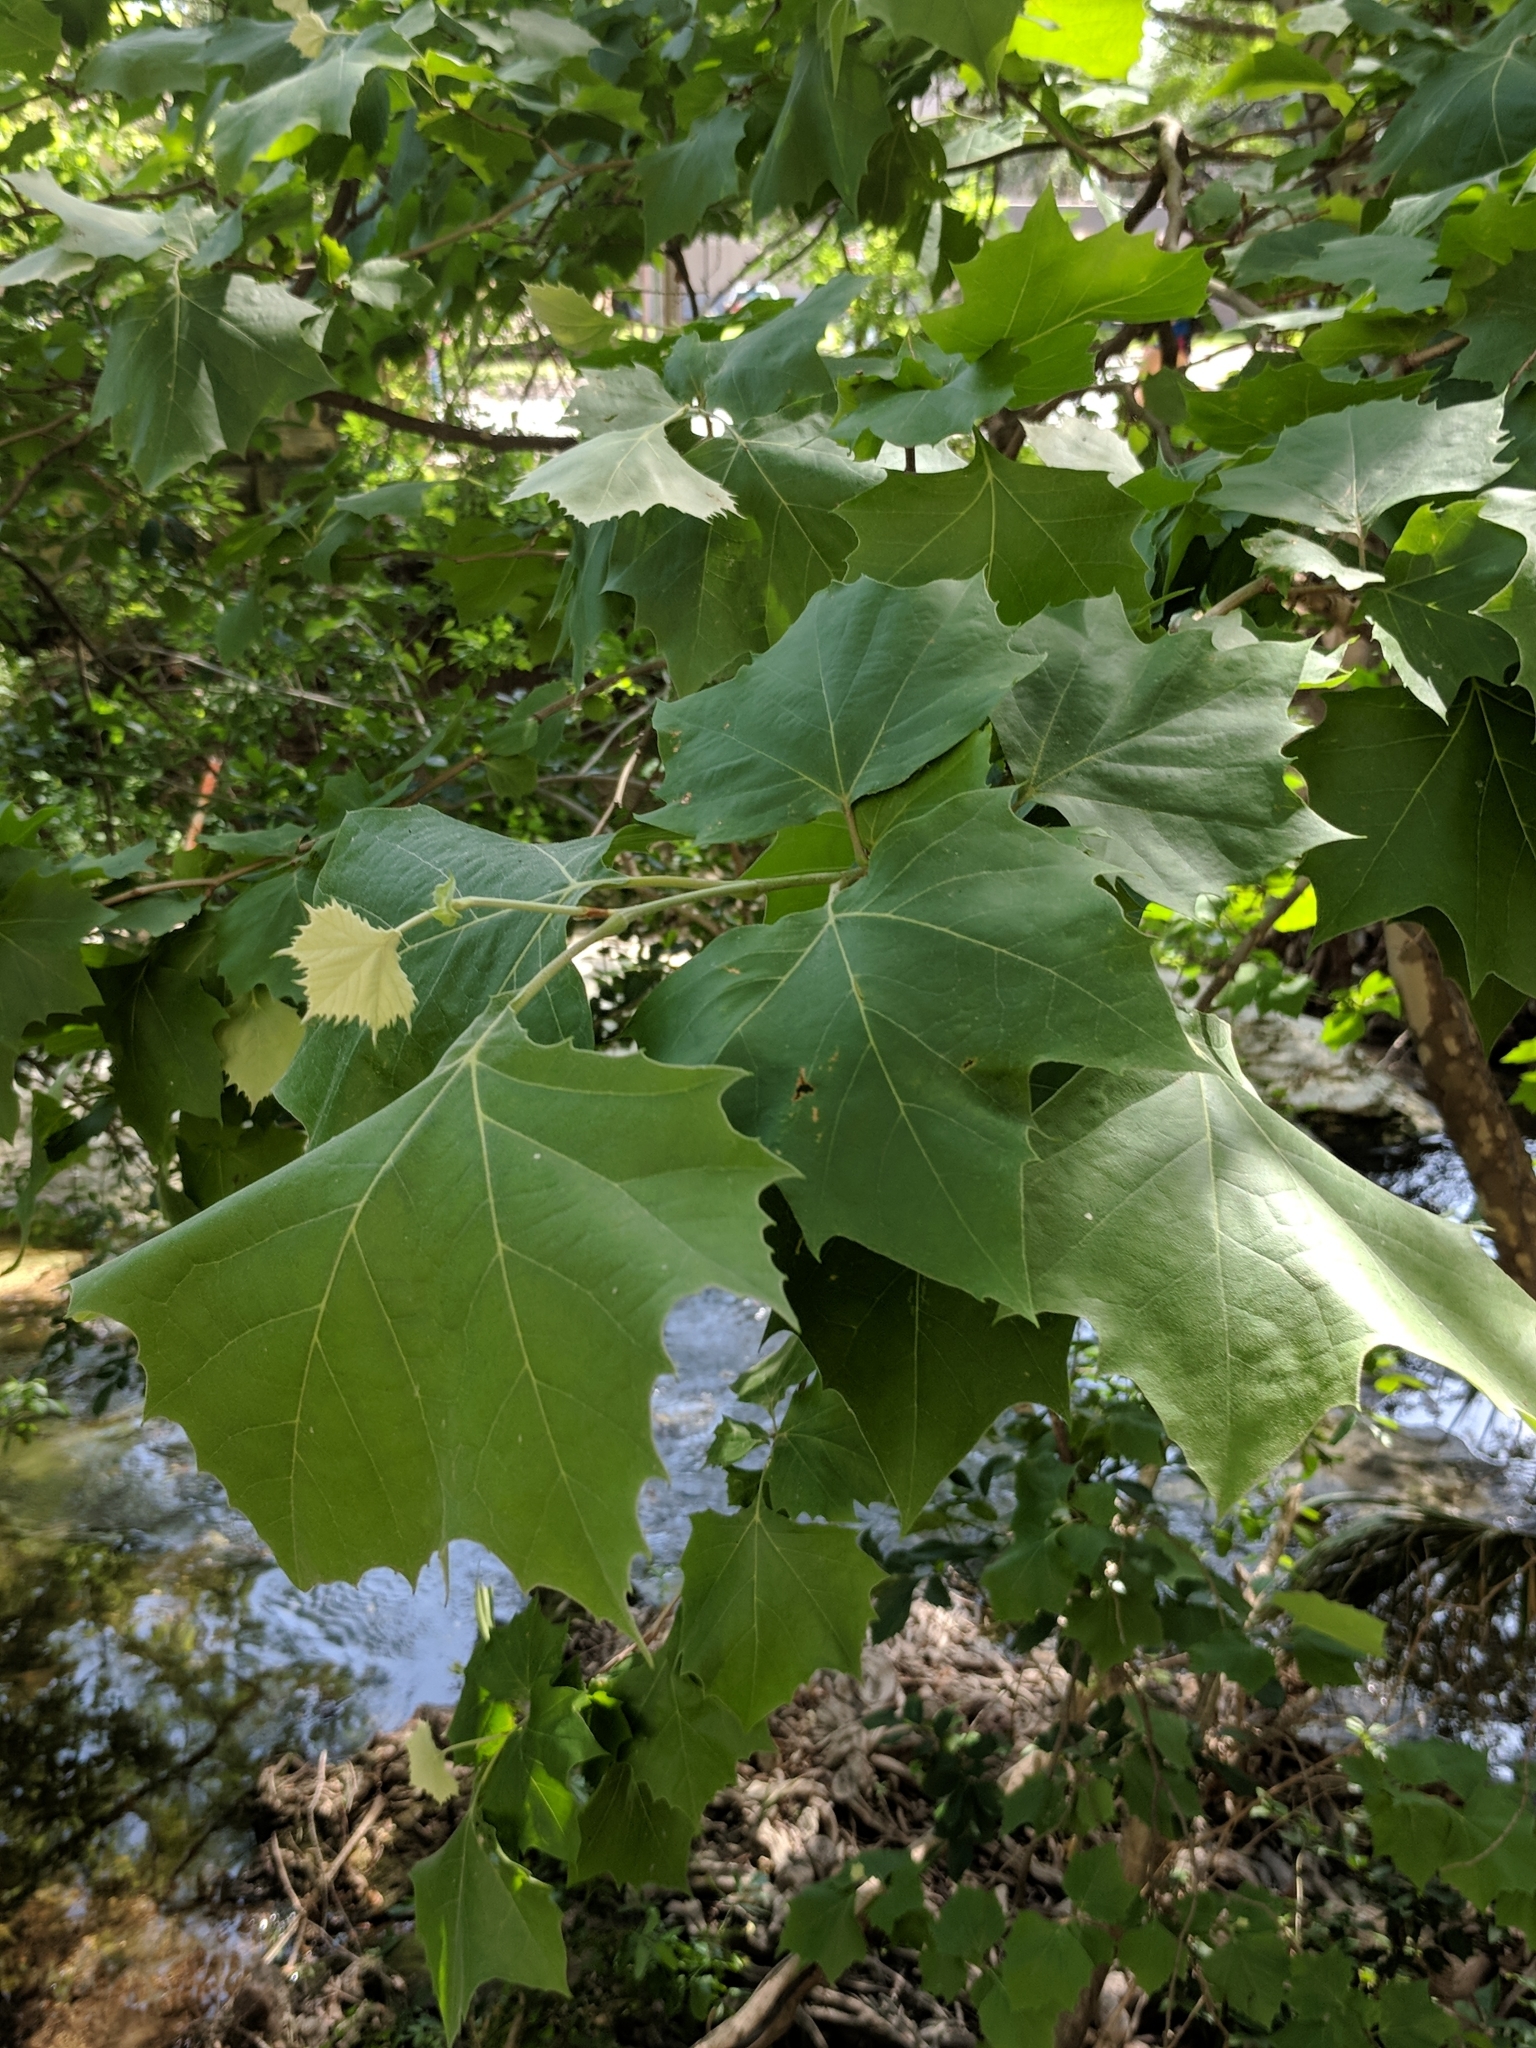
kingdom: Plantae
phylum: Tracheophyta
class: Magnoliopsida
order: Proteales
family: Platanaceae
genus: Platanus
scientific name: Platanus occidentalis
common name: American sycamore
